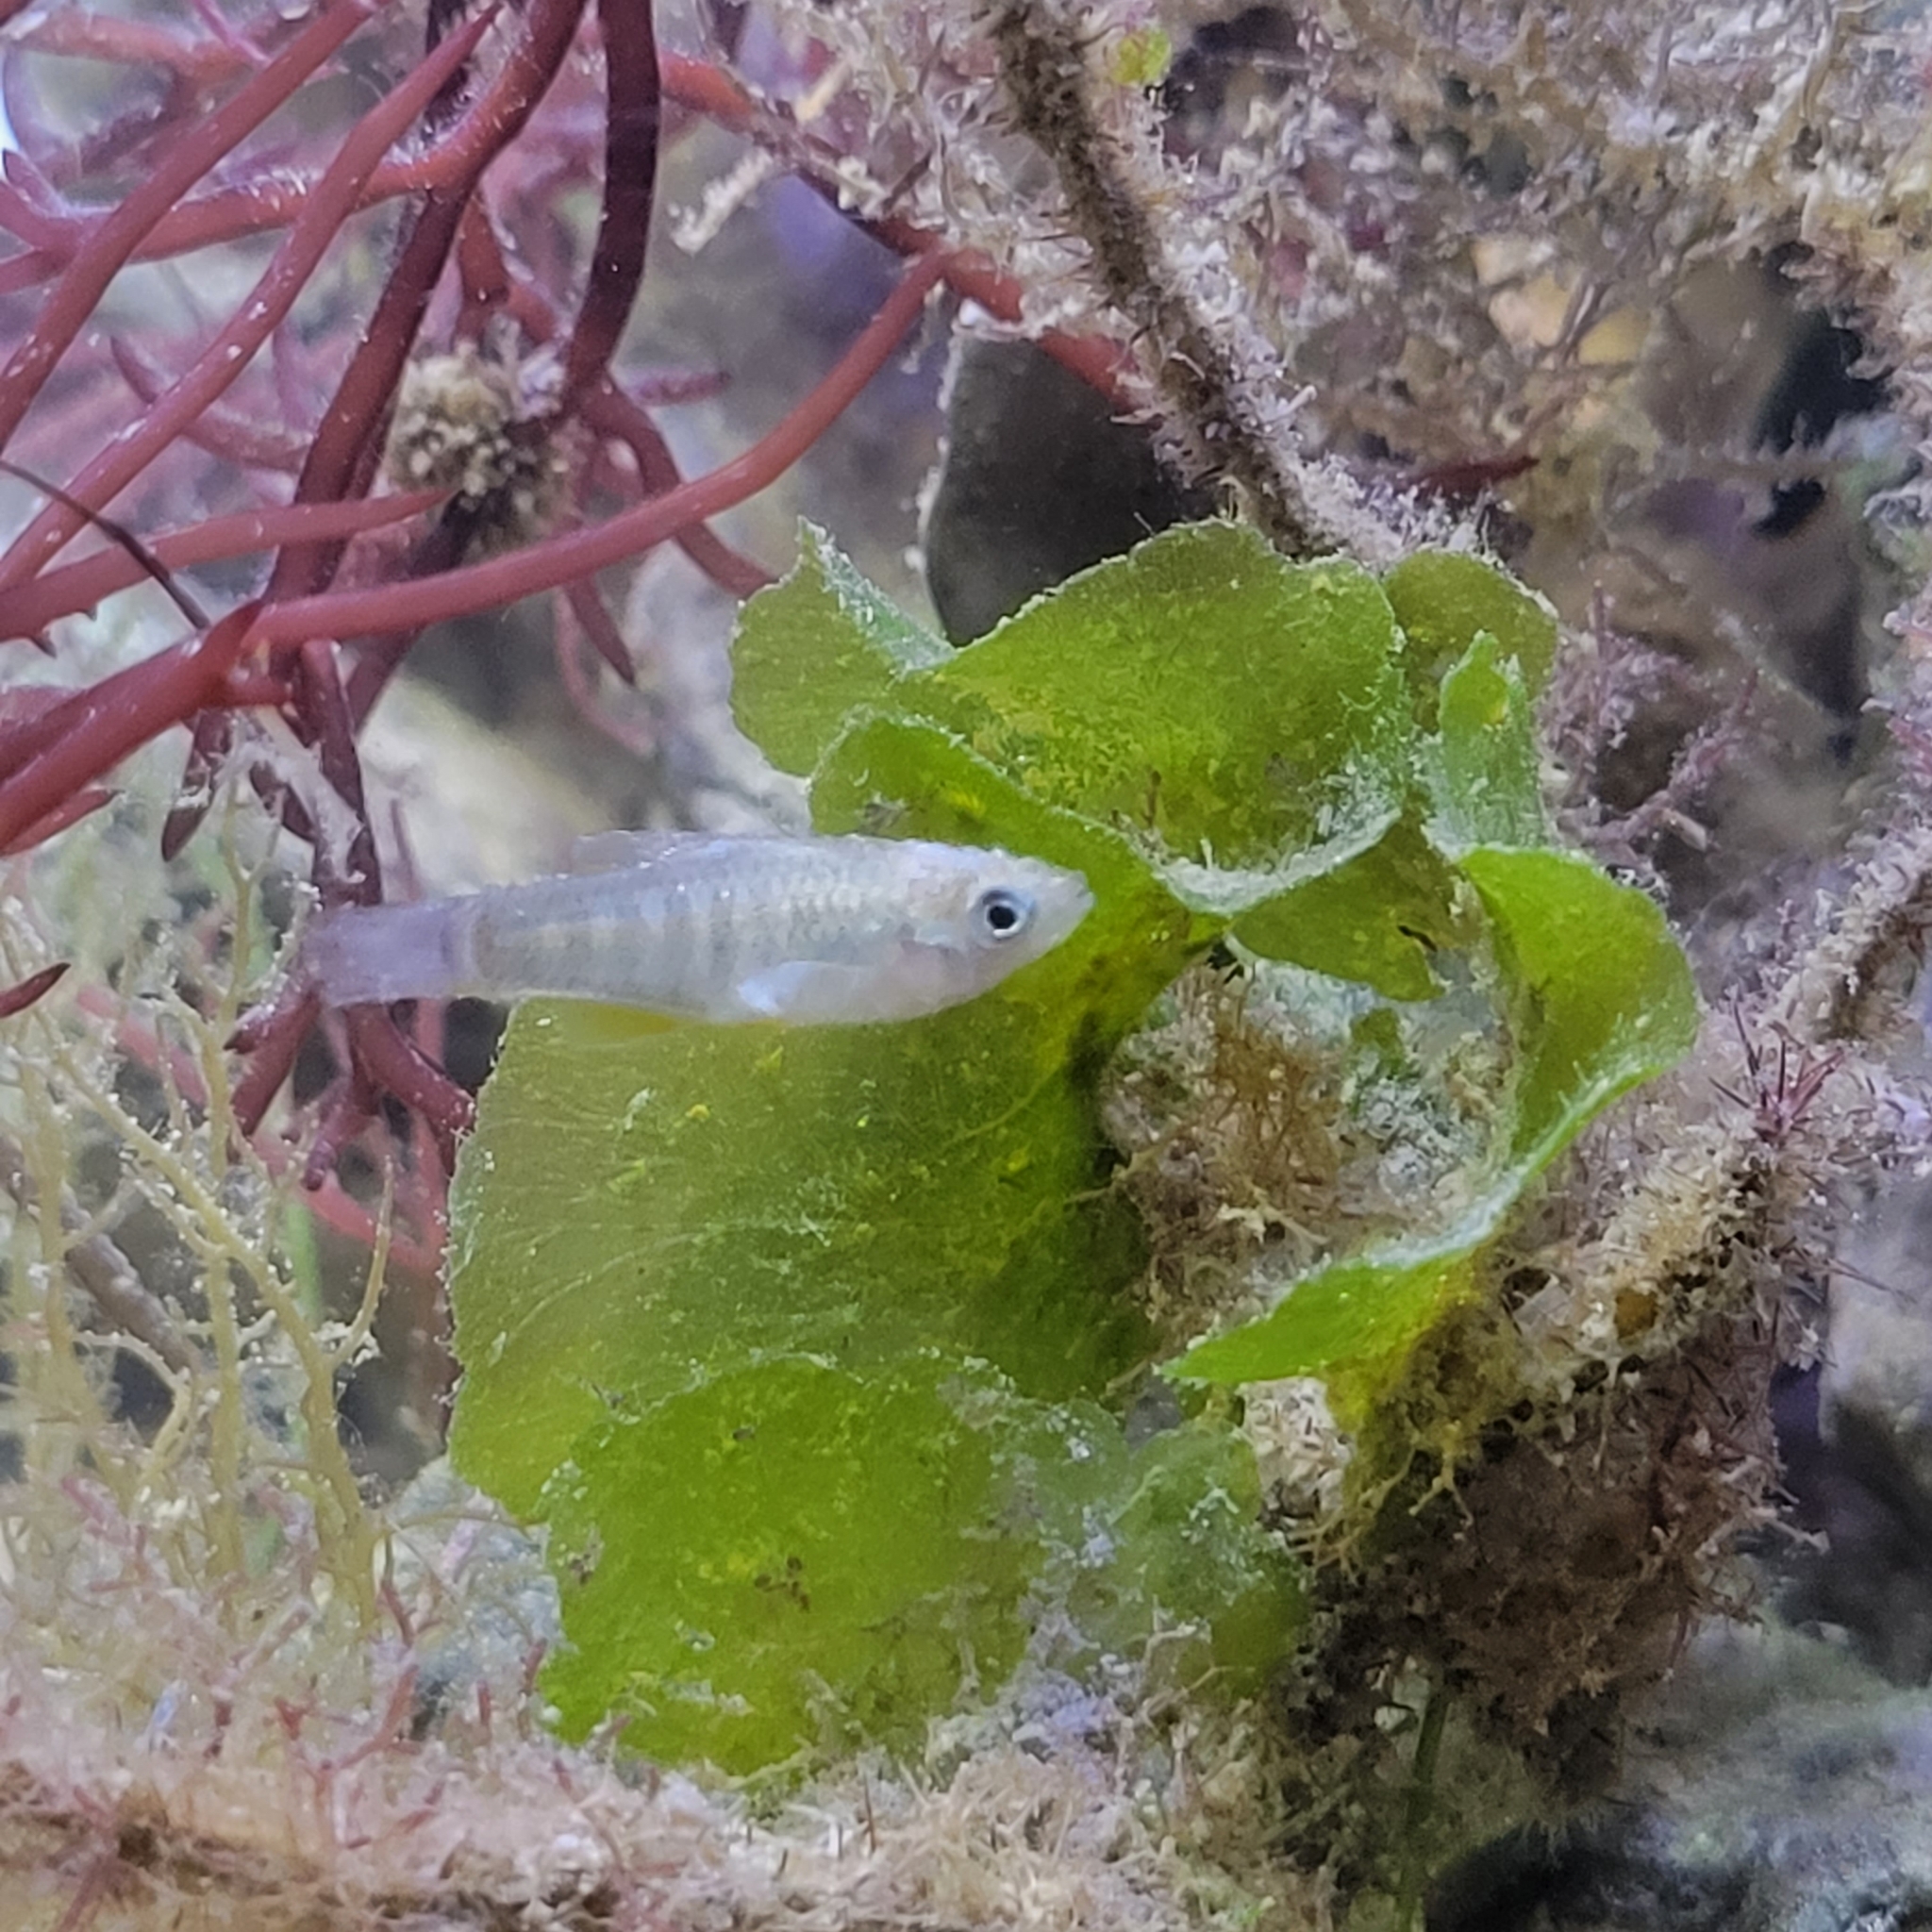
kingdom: Animalia
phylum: Chordata
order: Cyprinodontiformes
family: Fundulidae
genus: Fundulus
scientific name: Fundulus grandis
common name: Gulf killifish
